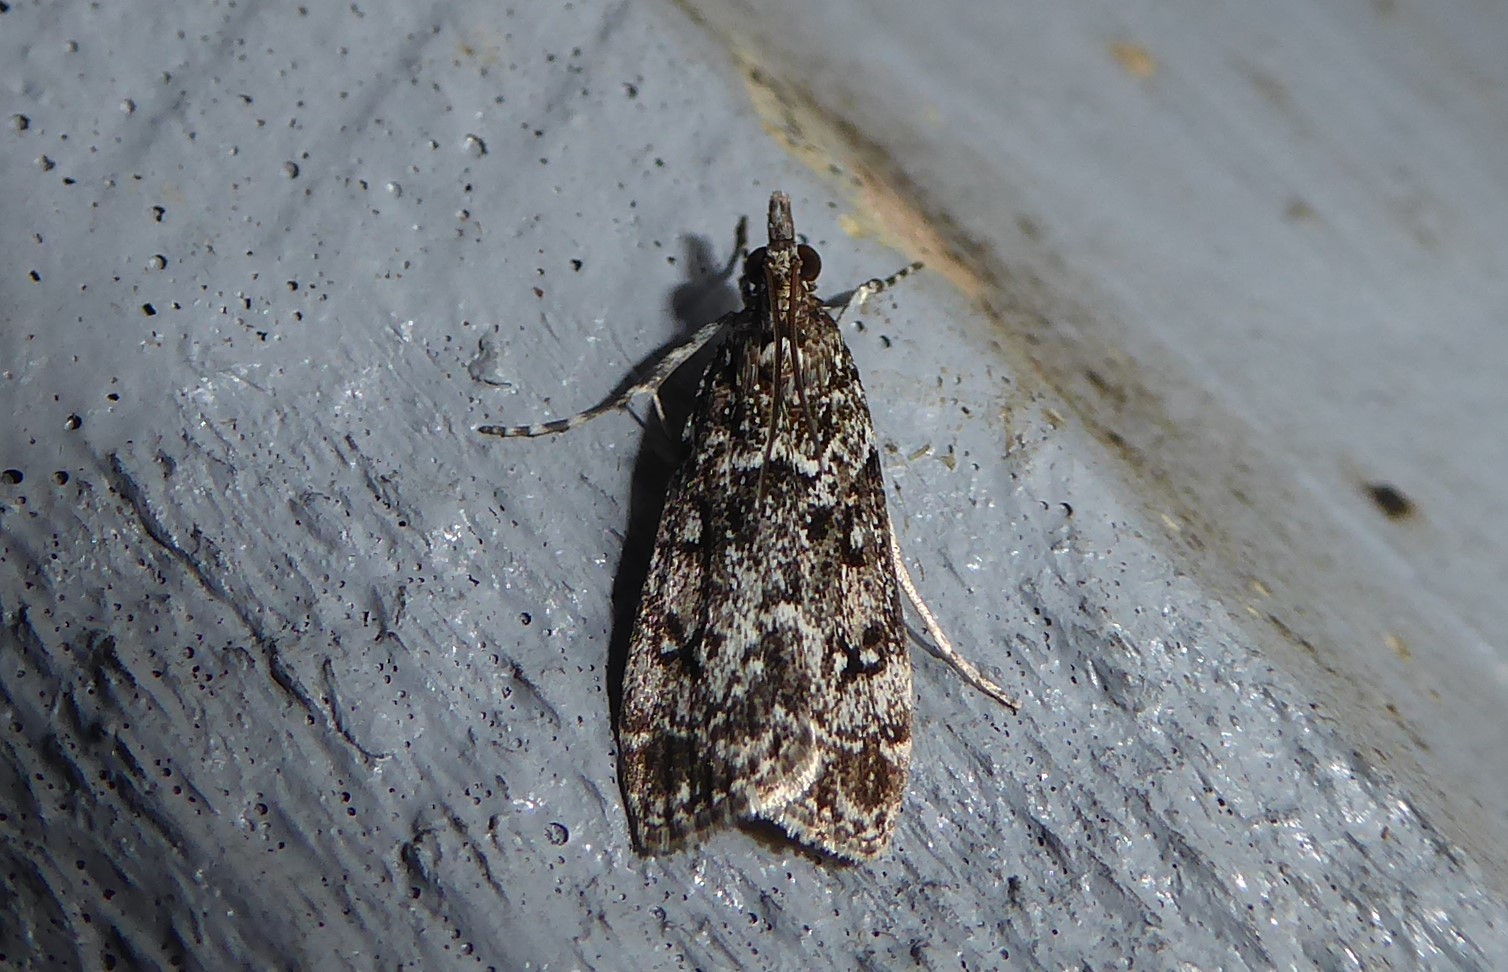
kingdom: Animalia
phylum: Arthropoda
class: Insecta
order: Lepidoptera
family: Crambidae
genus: Eudonia
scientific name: Eudonia philerga
